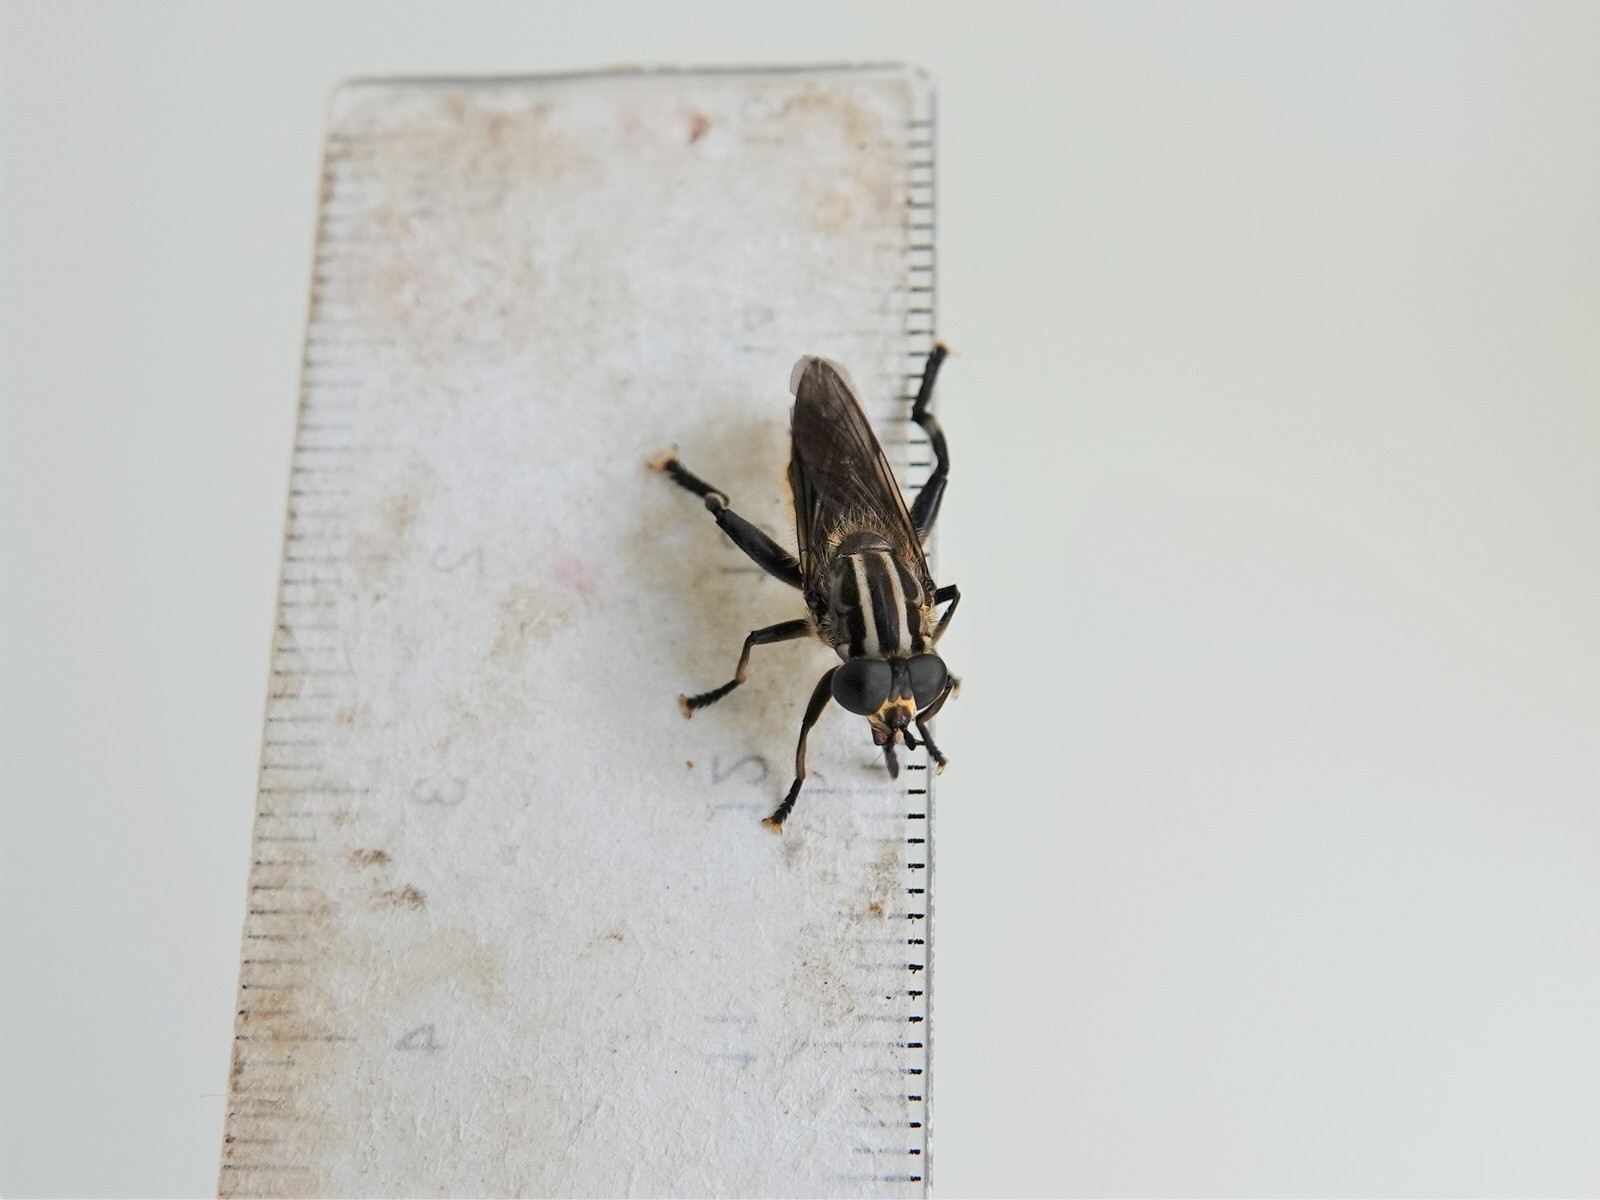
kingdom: Animalia
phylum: Arthropoda
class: Insecta
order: Diptera
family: Syrphidae
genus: Orthoprosopa
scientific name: Orthoprosopa bilineata
